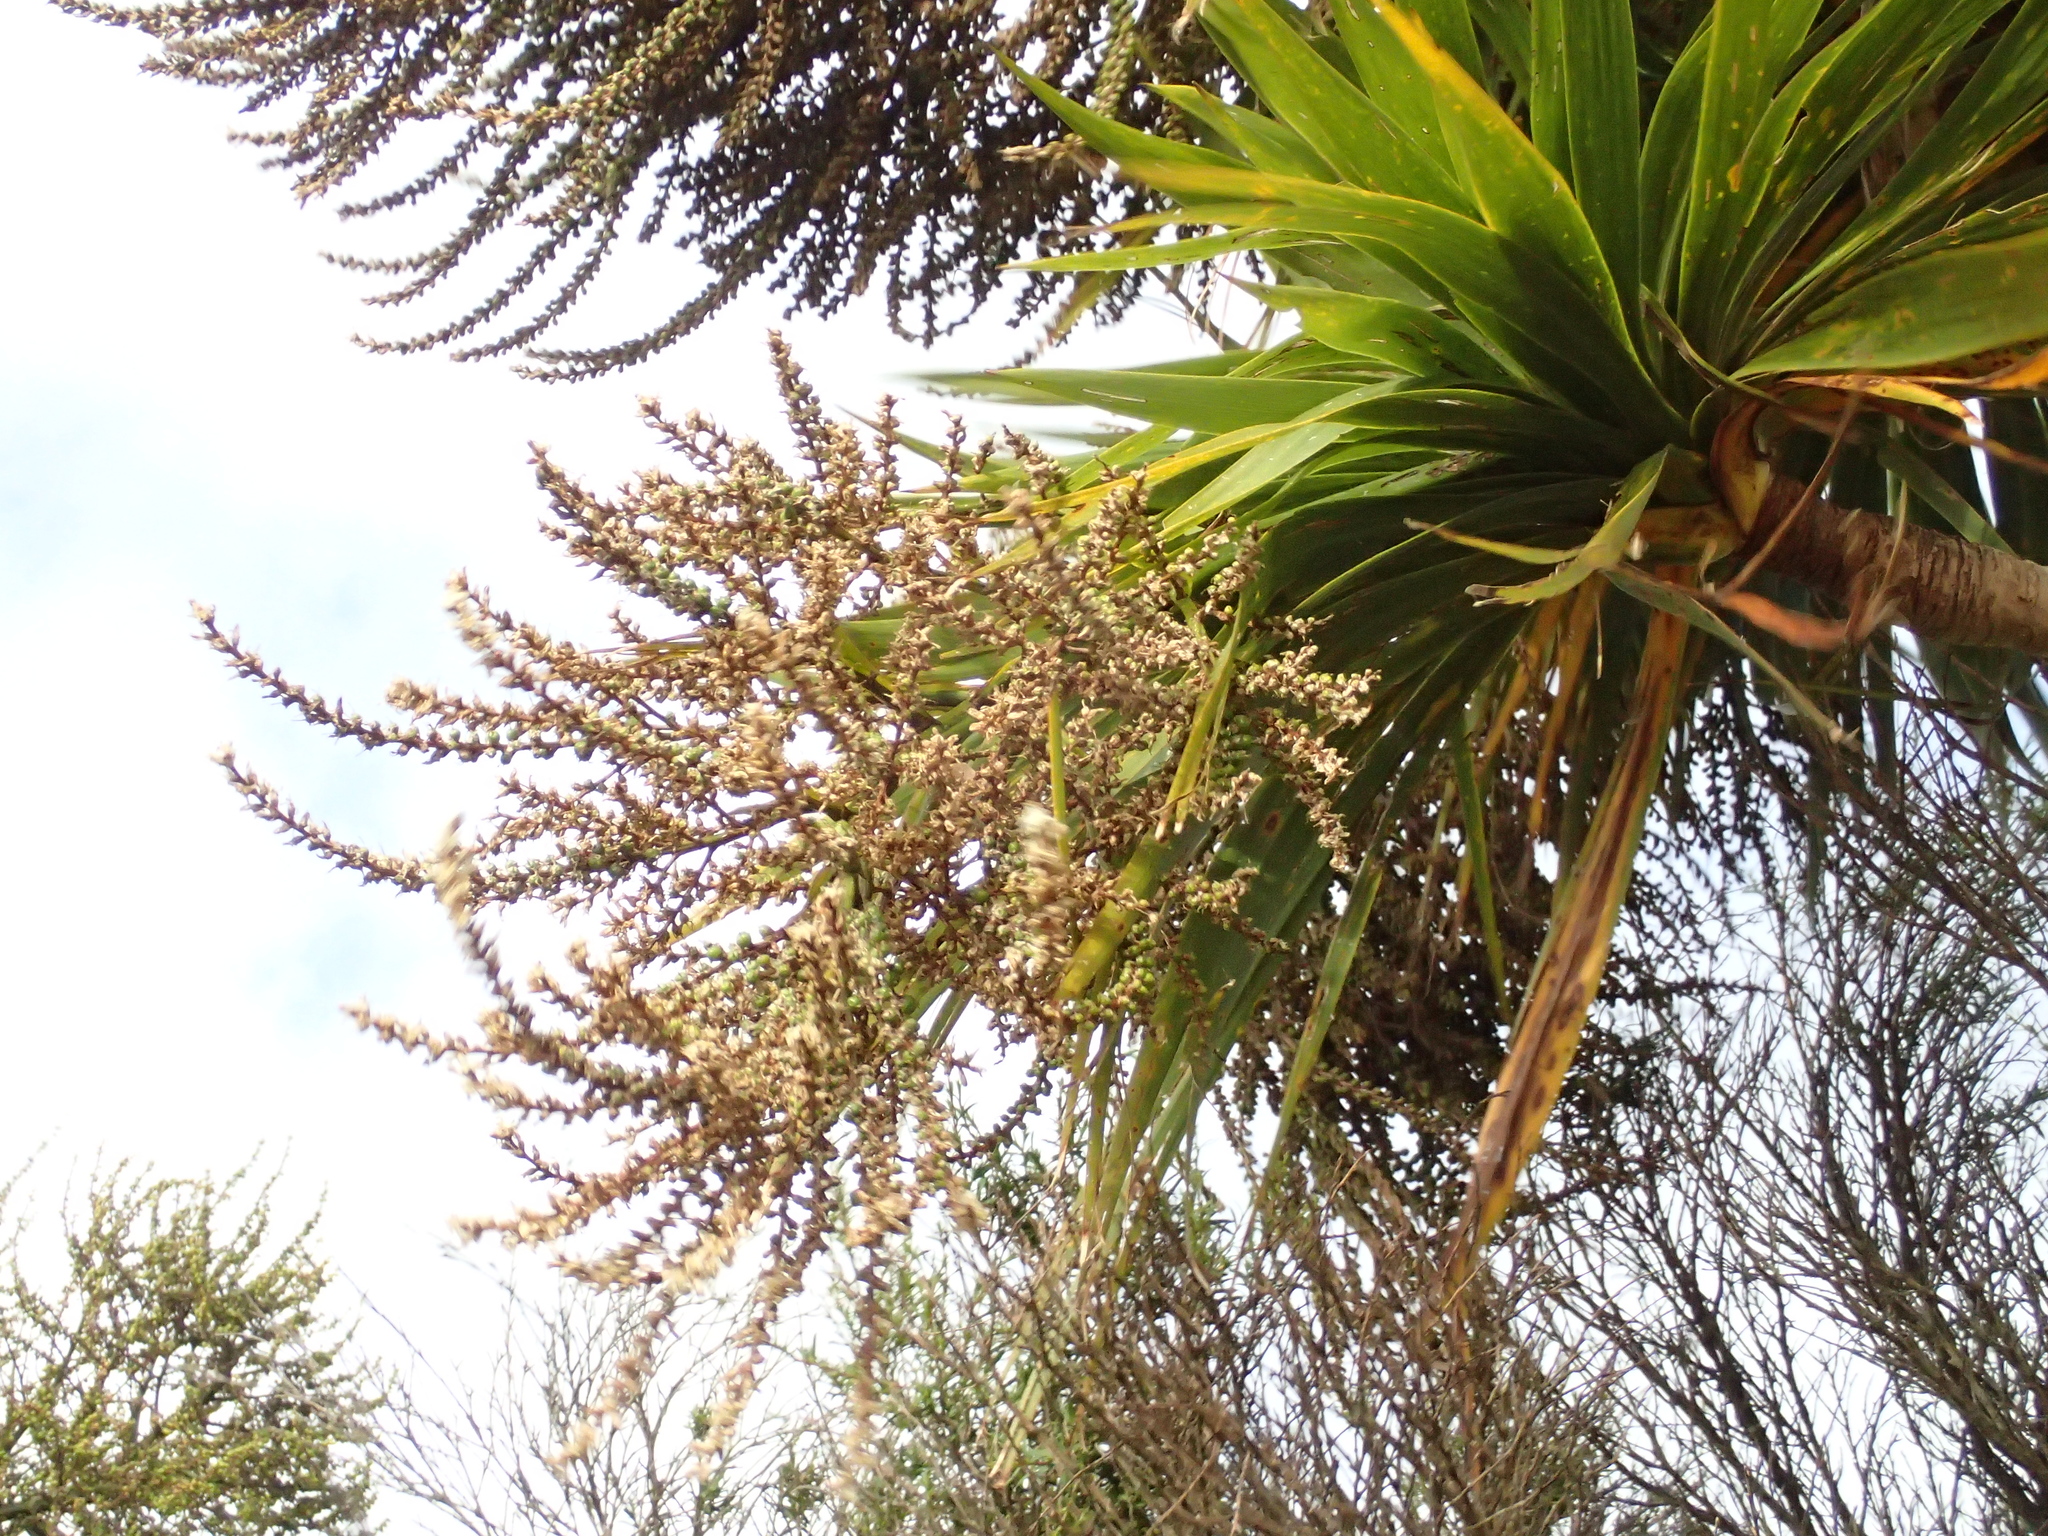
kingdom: Plantae
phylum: Tracheophyta
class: Liliopsida
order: Asparagales
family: Asparagaceae
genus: Cordyline
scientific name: Cordyline australis
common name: Cabbage-palm
